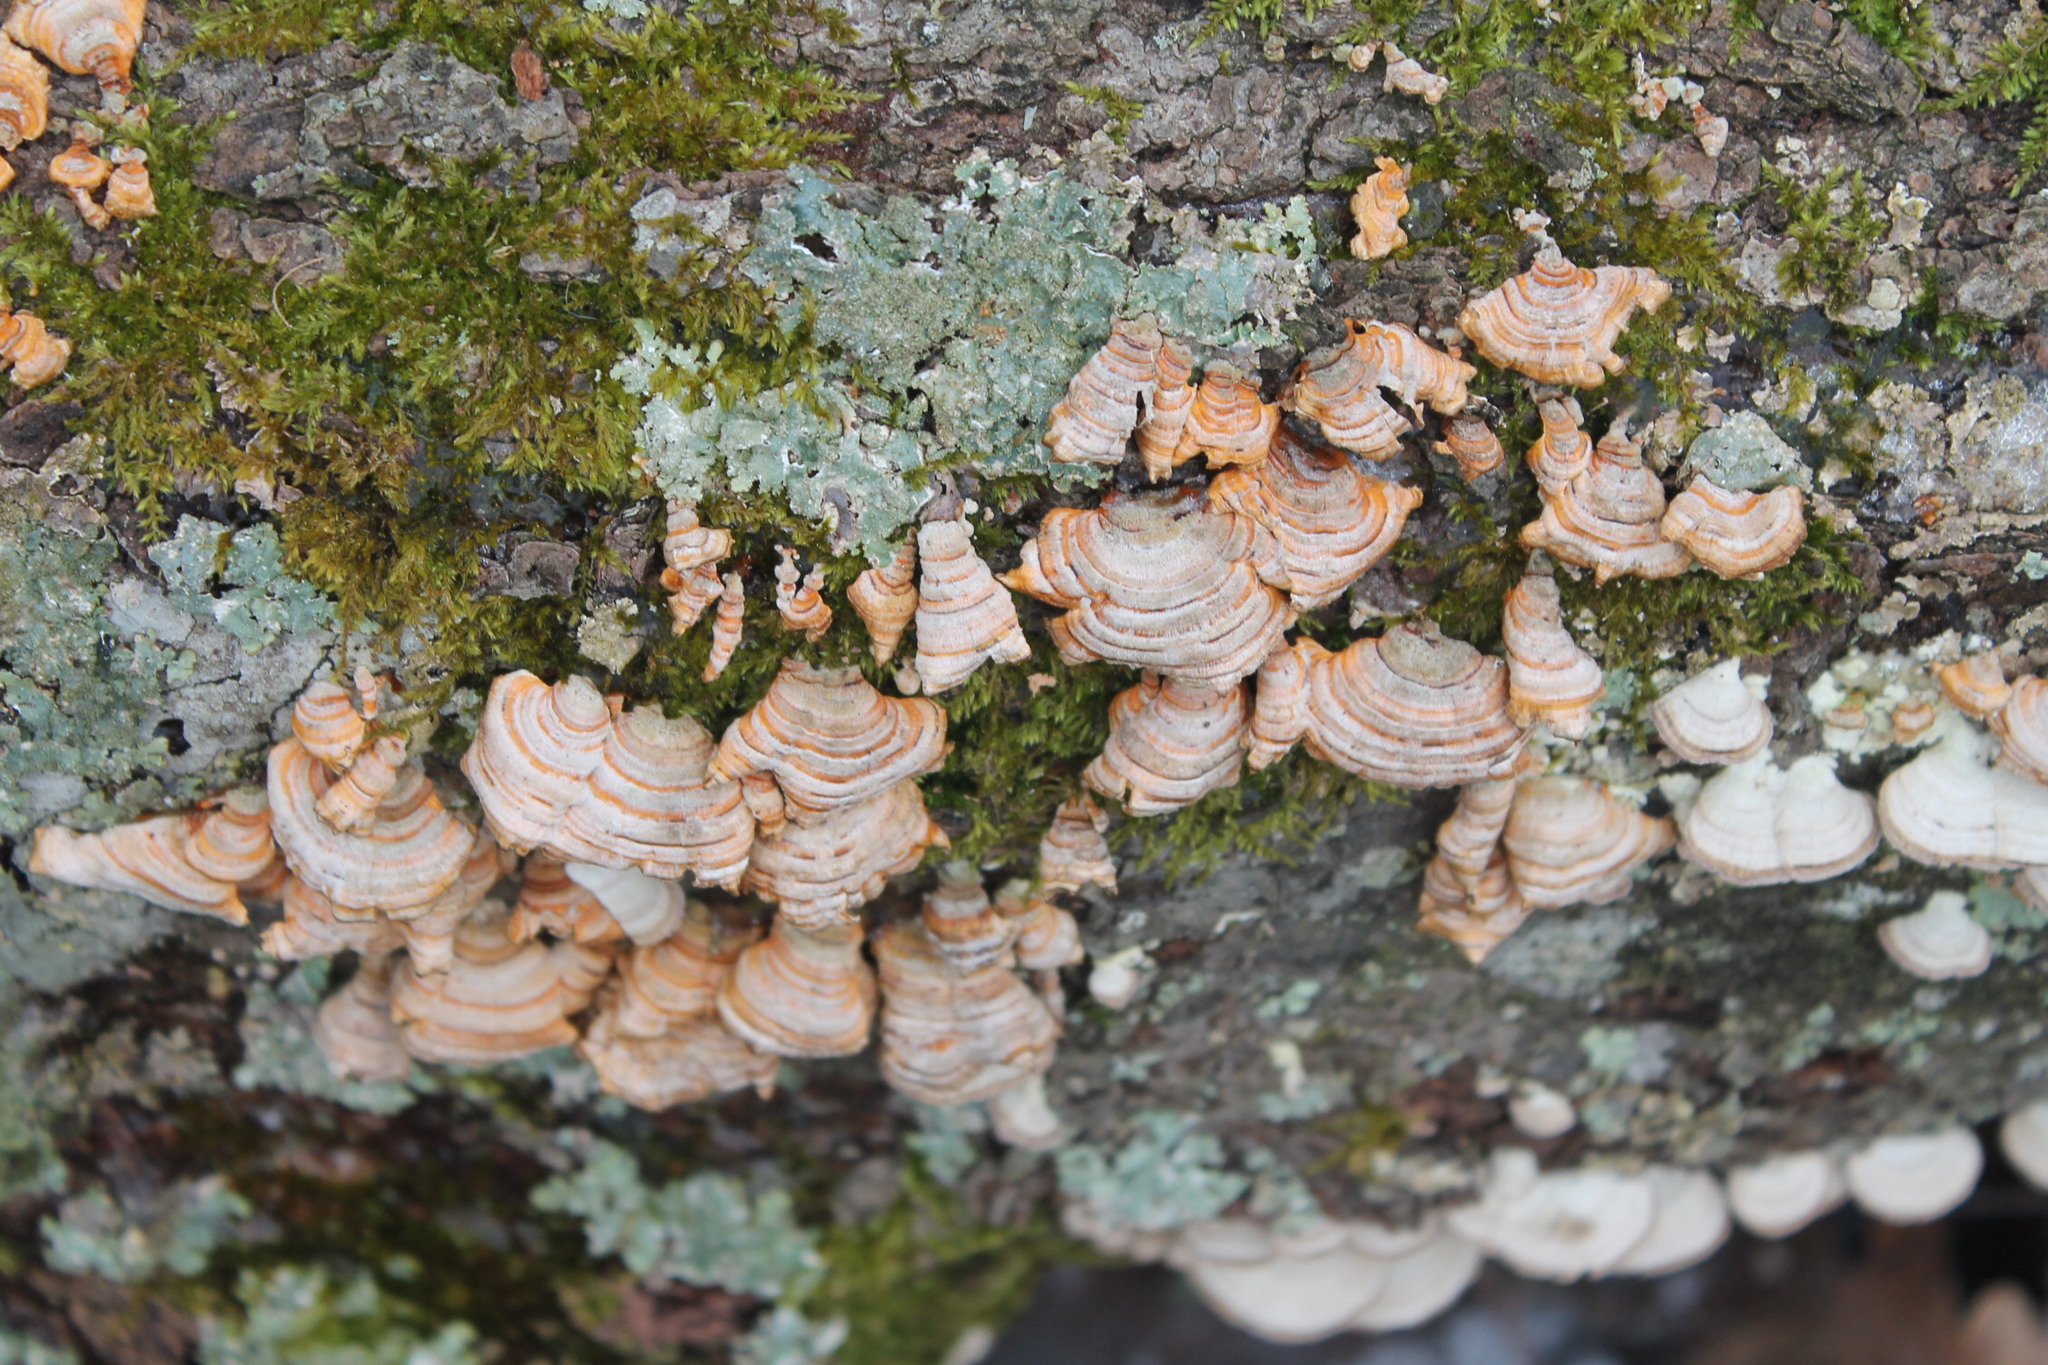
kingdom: Fungi
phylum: Basidiomycota
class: Agaricomycetes
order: Russulales
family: Stereaceae
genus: Stereum
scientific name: Stereum complicatum
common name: Crowded parchment
